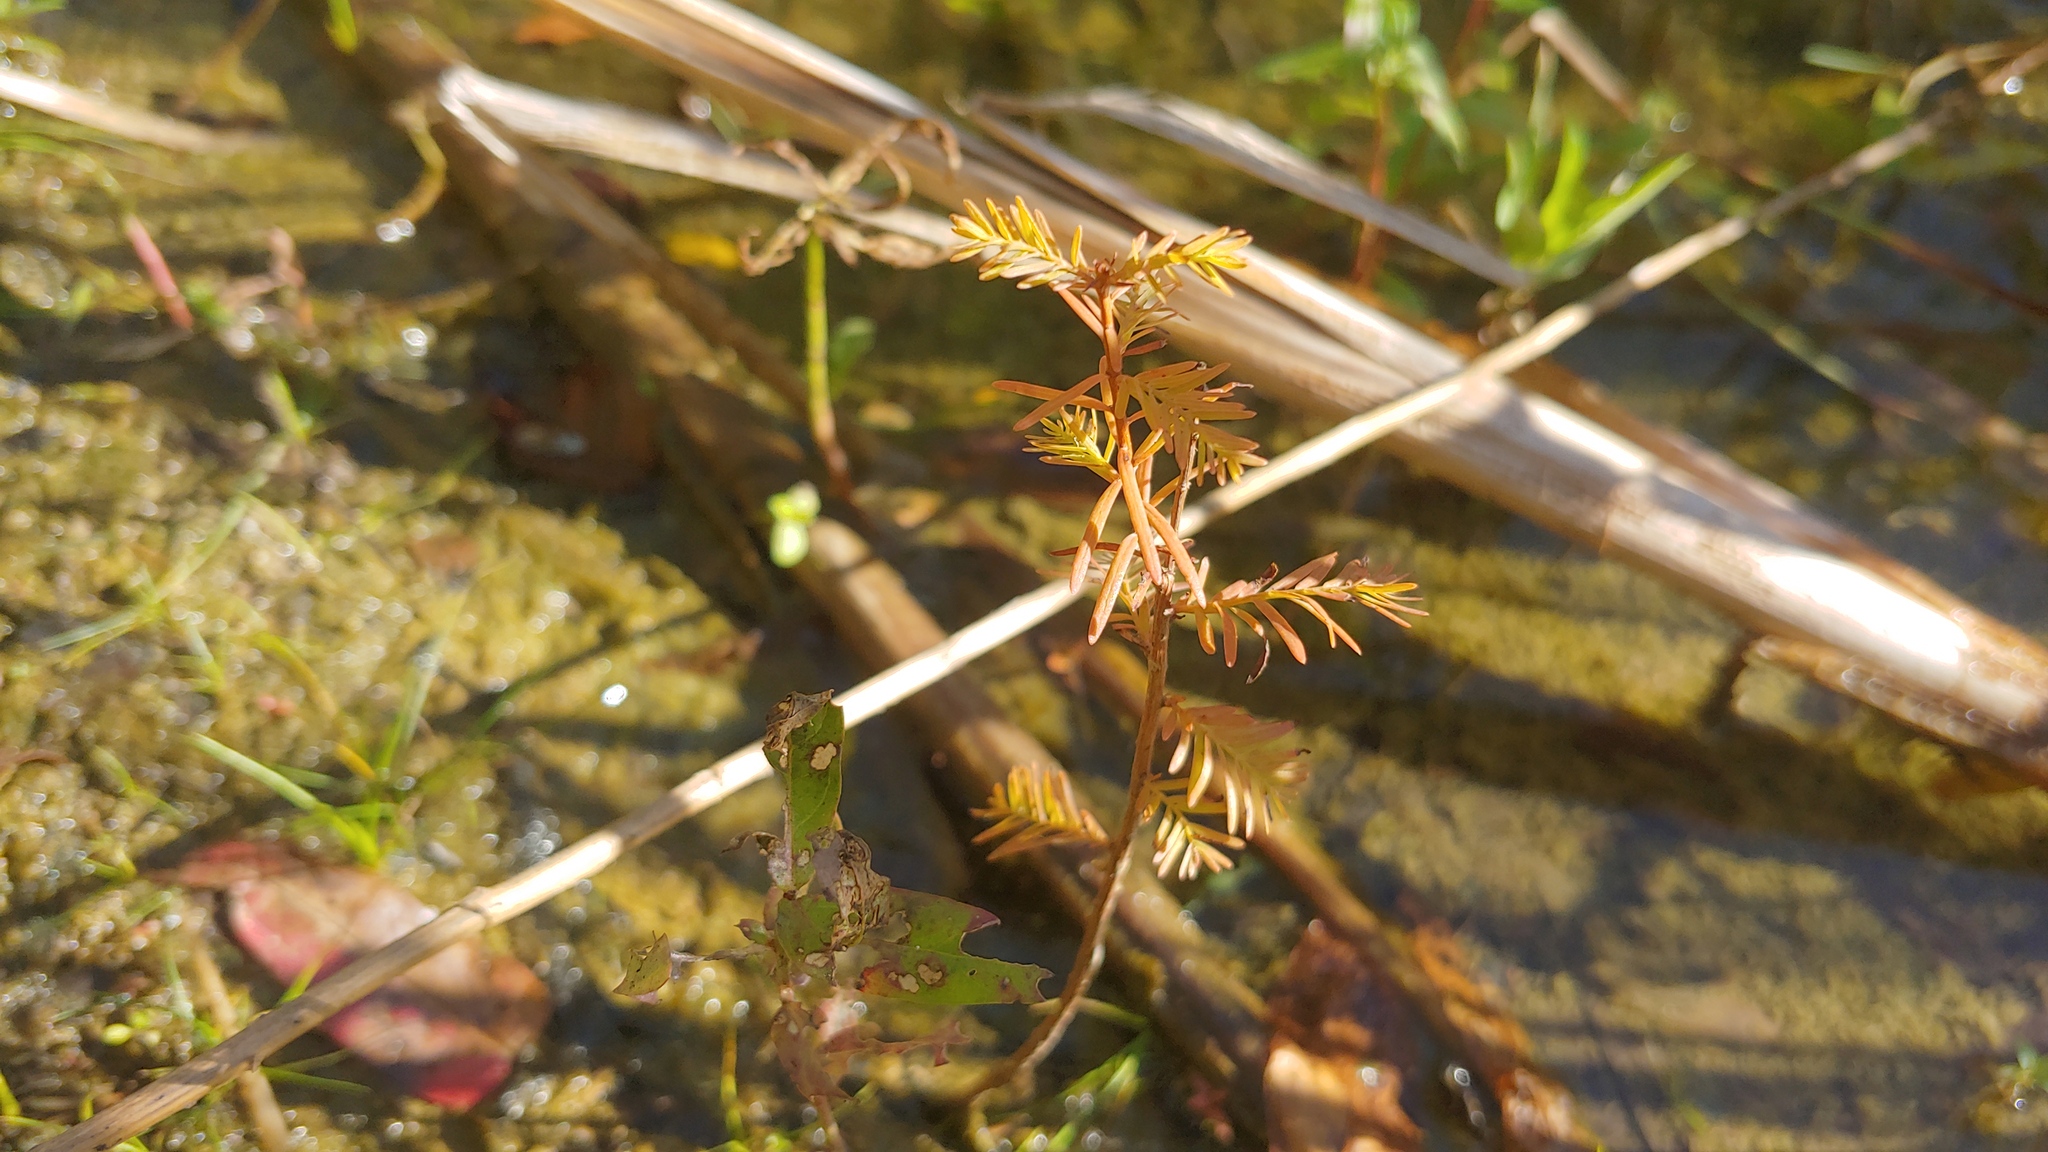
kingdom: Plantae
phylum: Tracheophyta
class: Pinopsida
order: Pinales
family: Cupressaceae
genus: Taxodium
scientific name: Taxodium distichum
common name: Bald cypress
